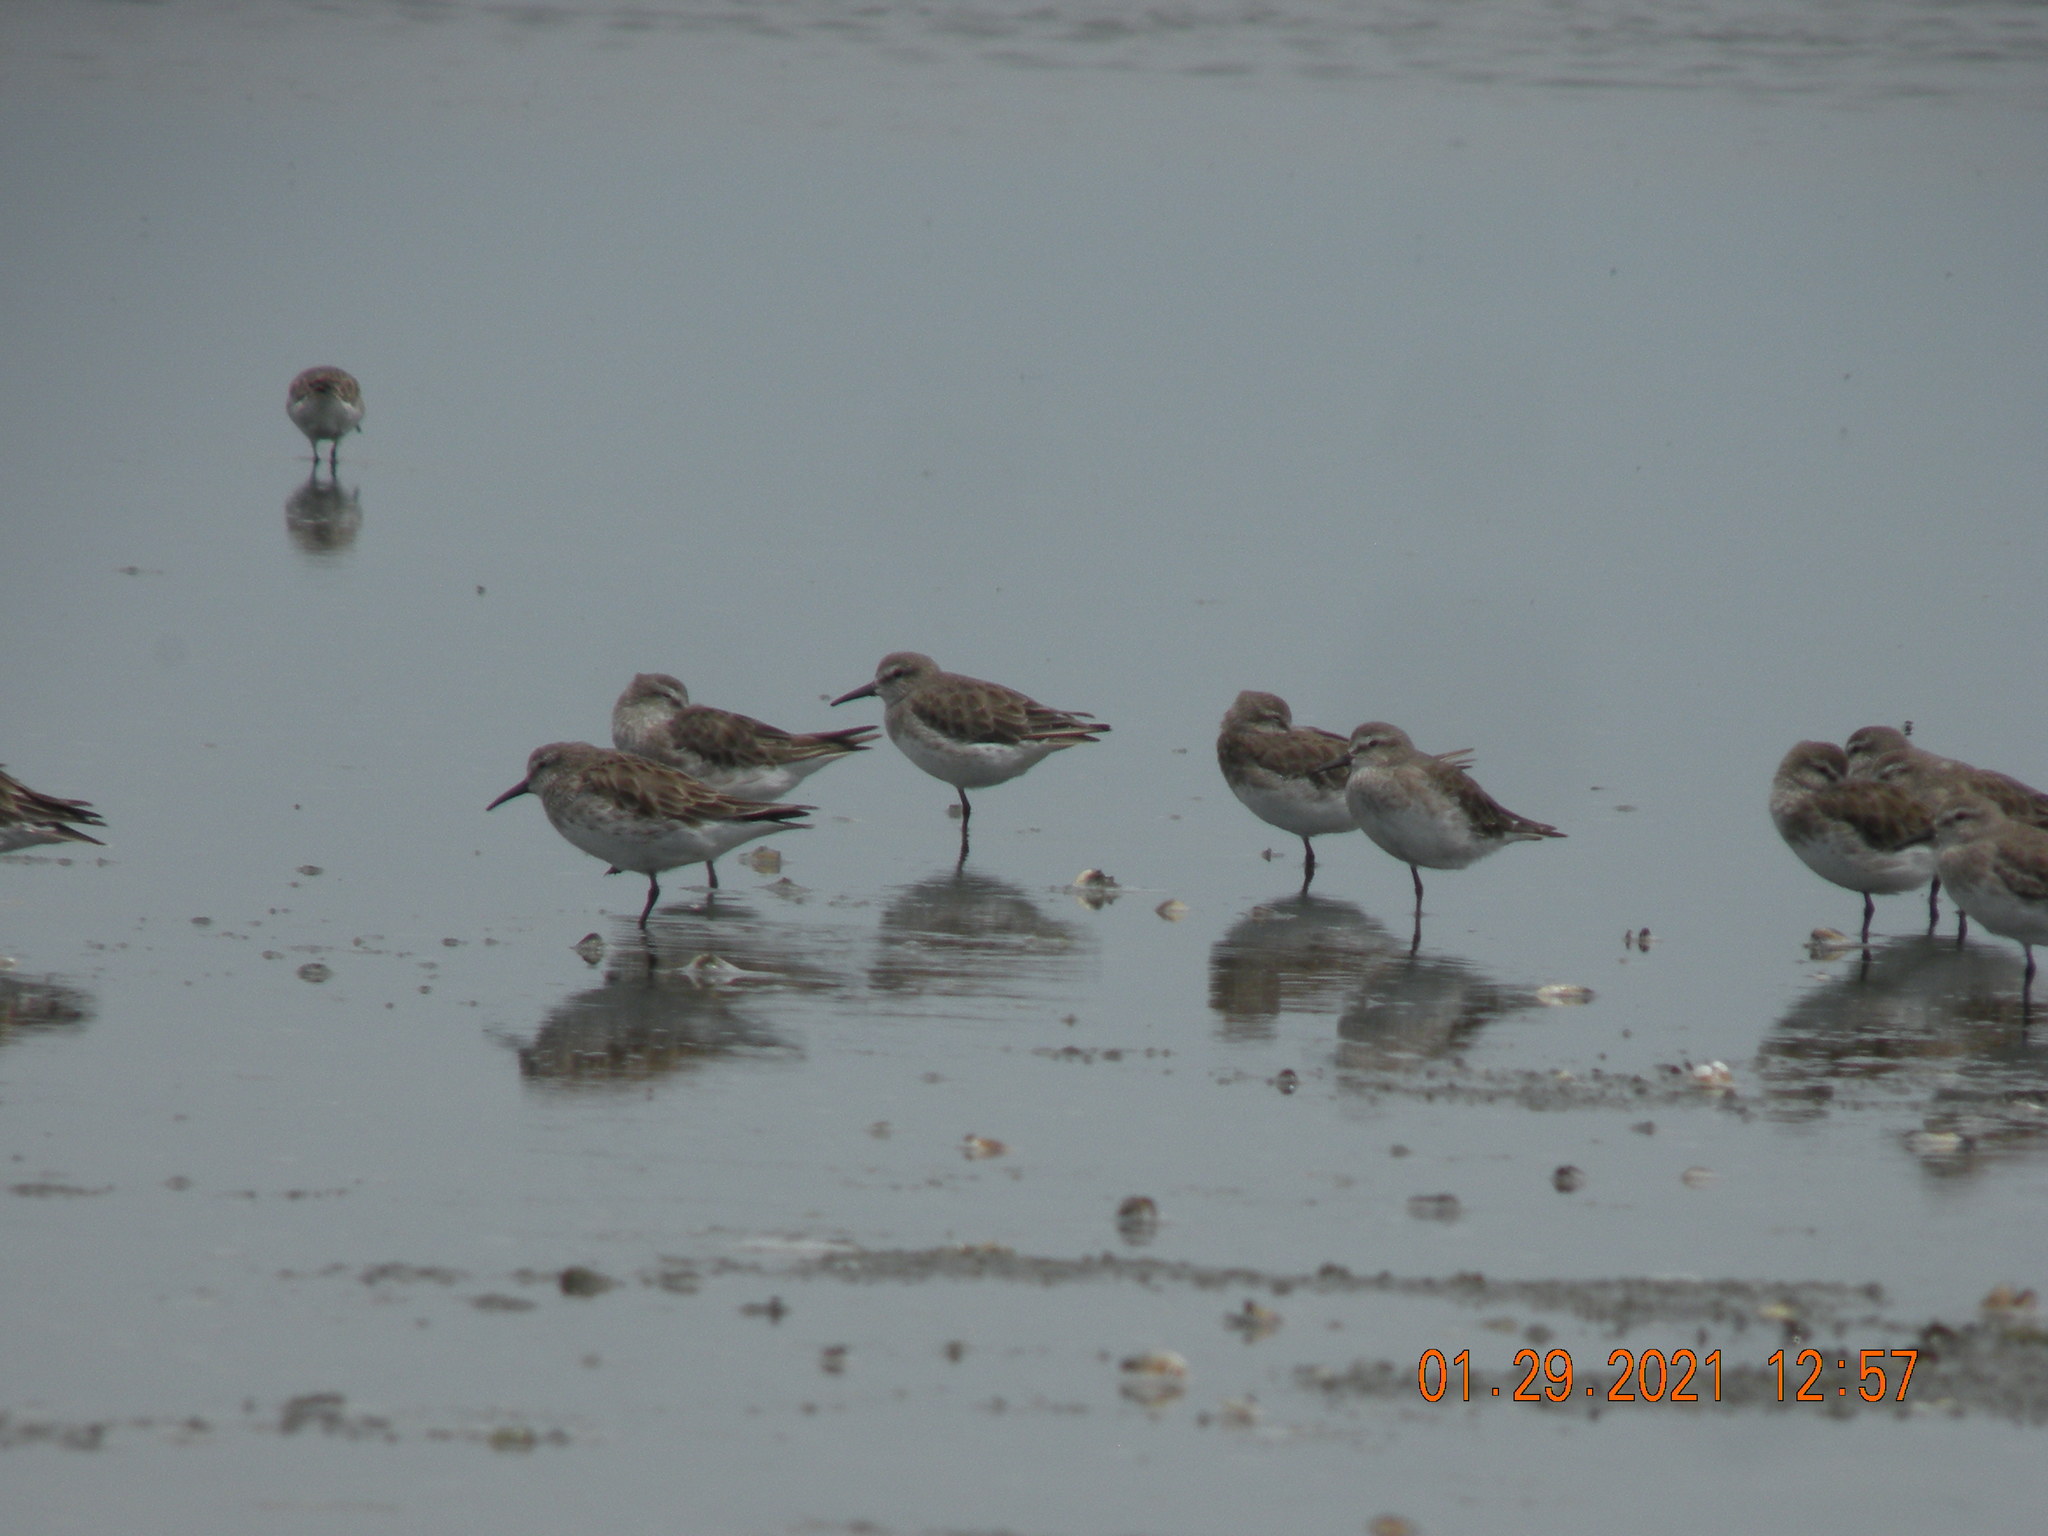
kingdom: Animalia
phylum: Chordata
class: Aves
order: Charadriiformes
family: Scolopacidae
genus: Calidris
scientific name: Calidris fuscicollis
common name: White-rumped sandpiper
